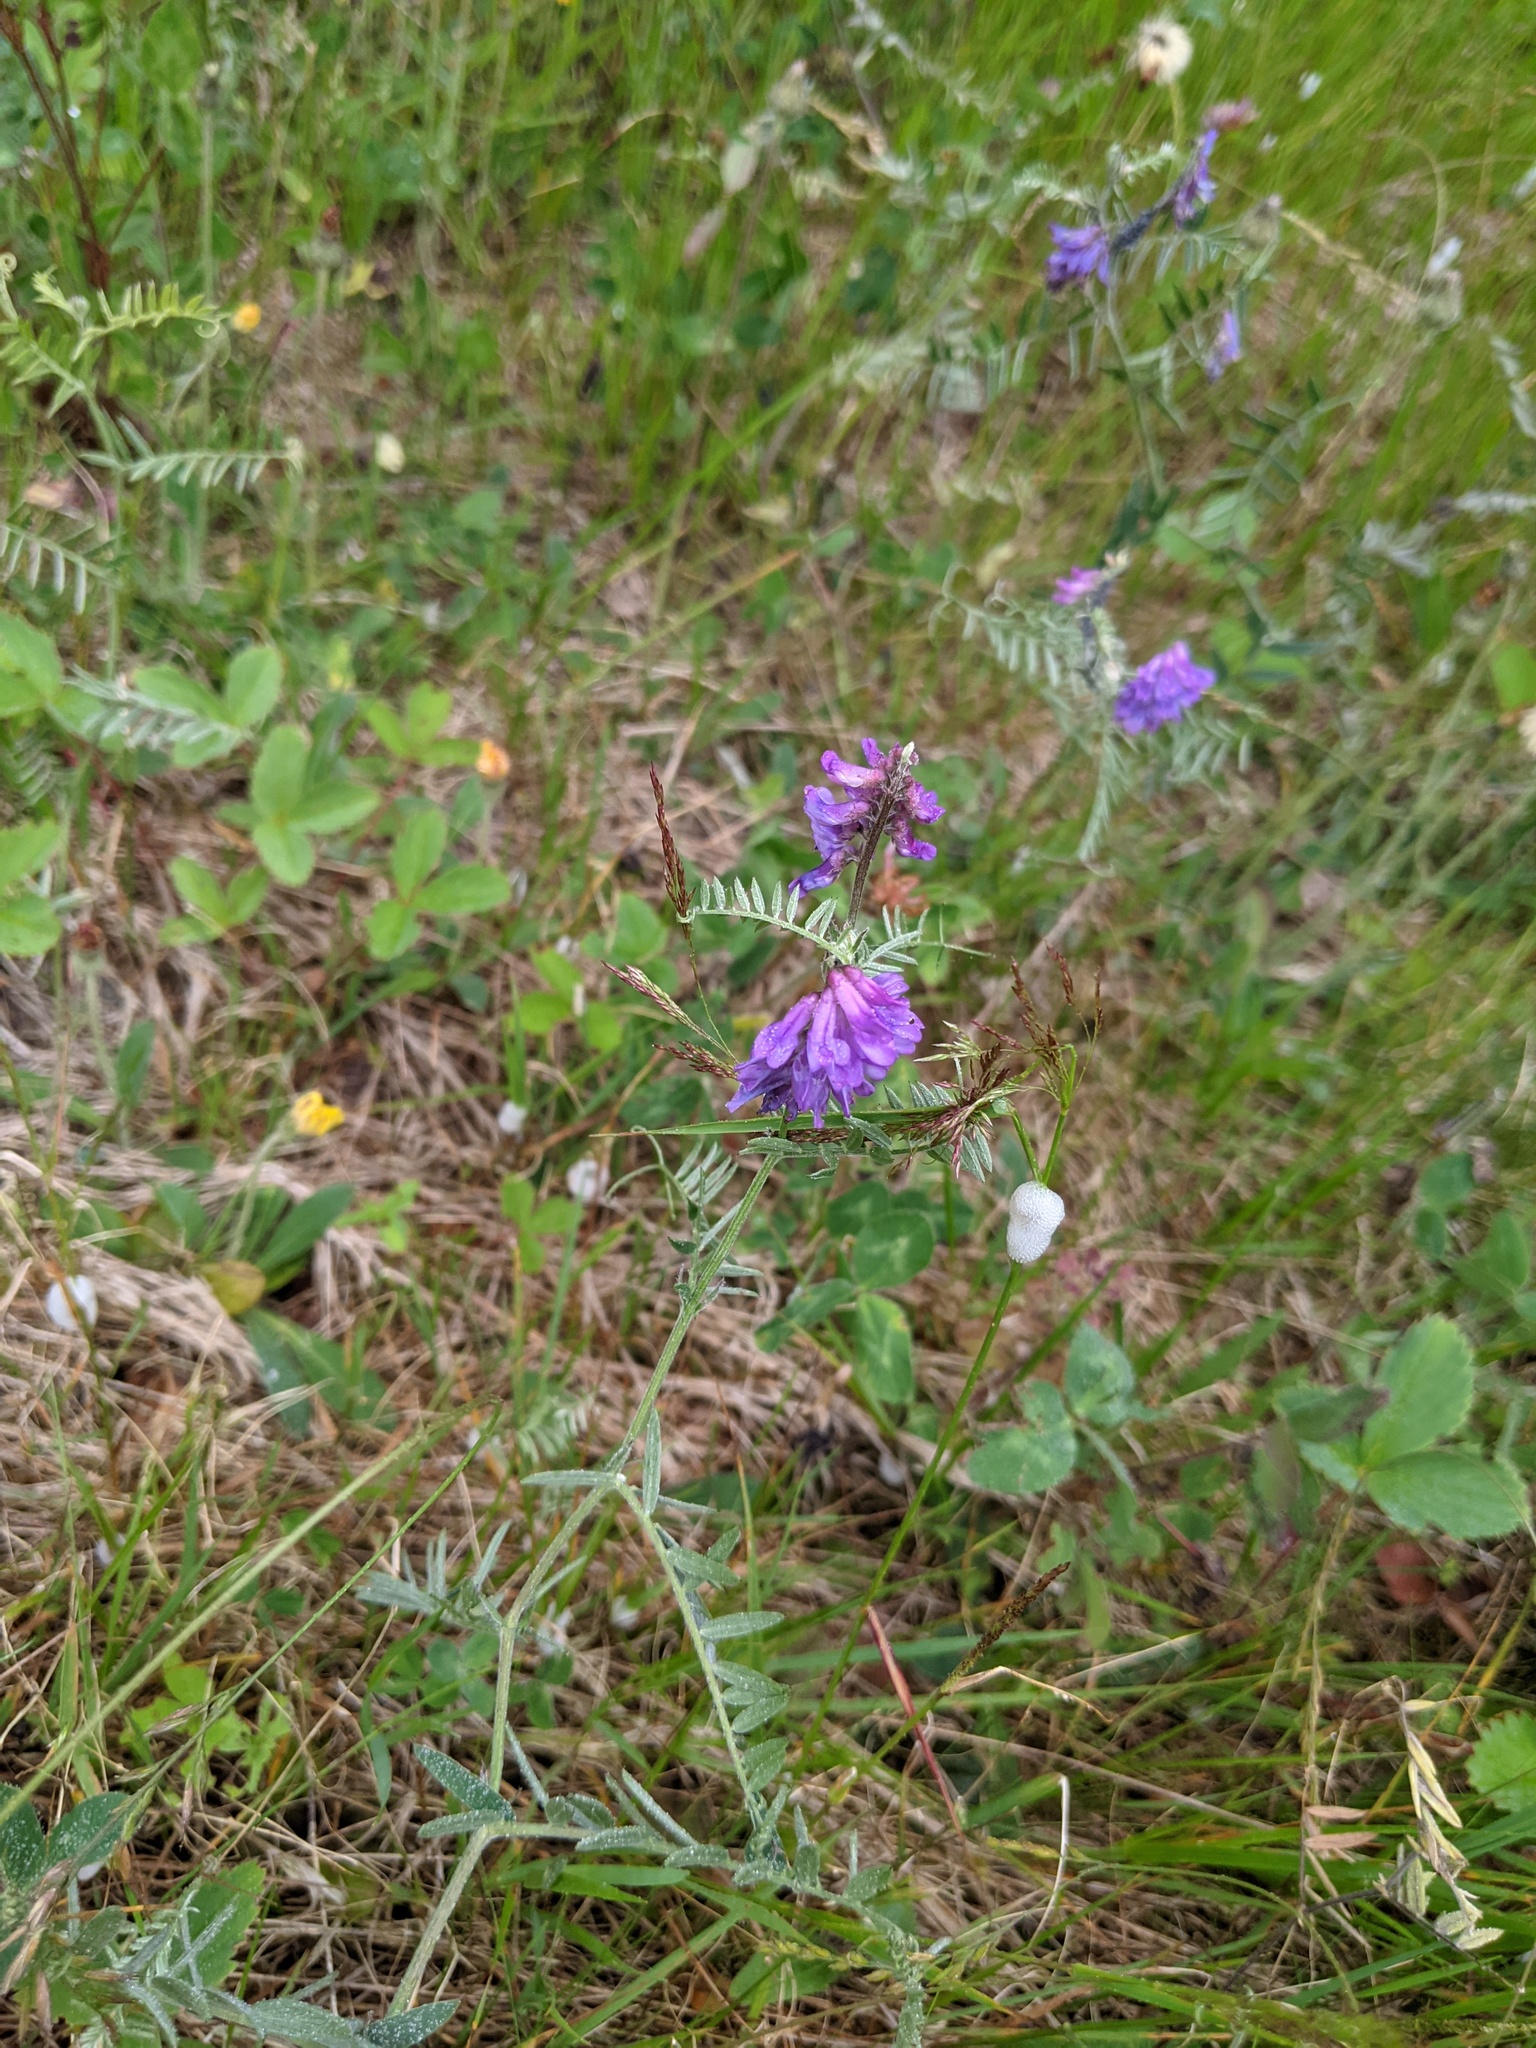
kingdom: Plantae
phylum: Tracheophyta
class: Magnoliopsida
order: Fabales
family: Fabaceae
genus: Vicia
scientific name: Vicia cracca
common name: Bird vetch
